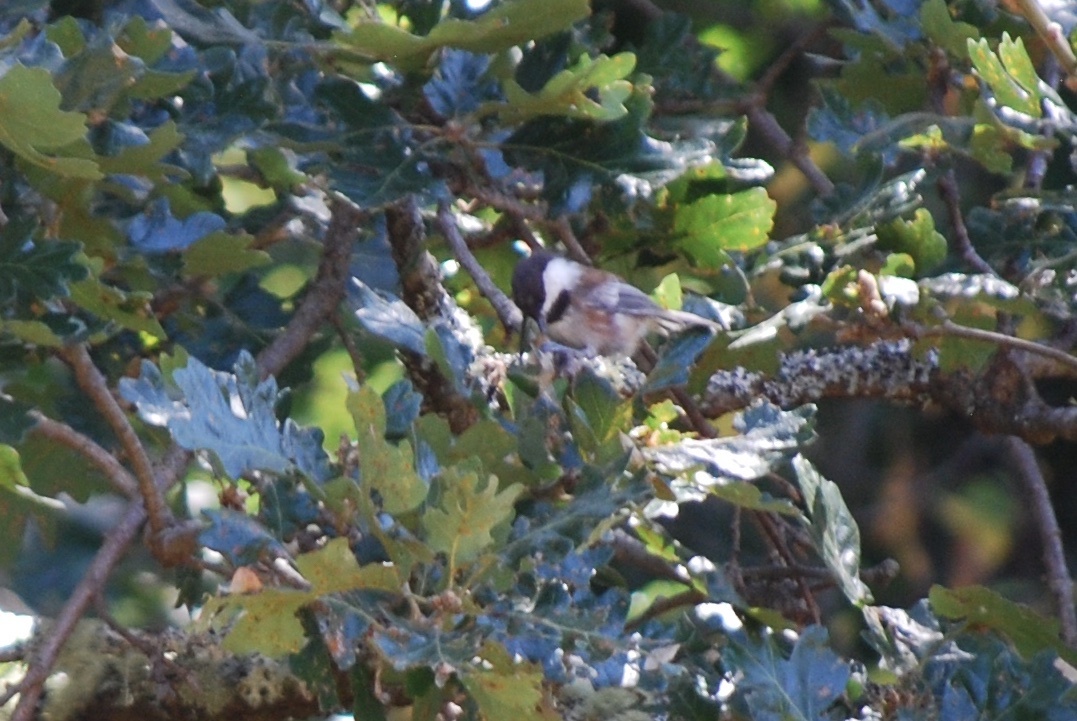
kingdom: Animalia
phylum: Chordata
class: Aves
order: Passeriformes
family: Paridae
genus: Poecile
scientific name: Poecile rufescens
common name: Chestnut-backed chickadee
